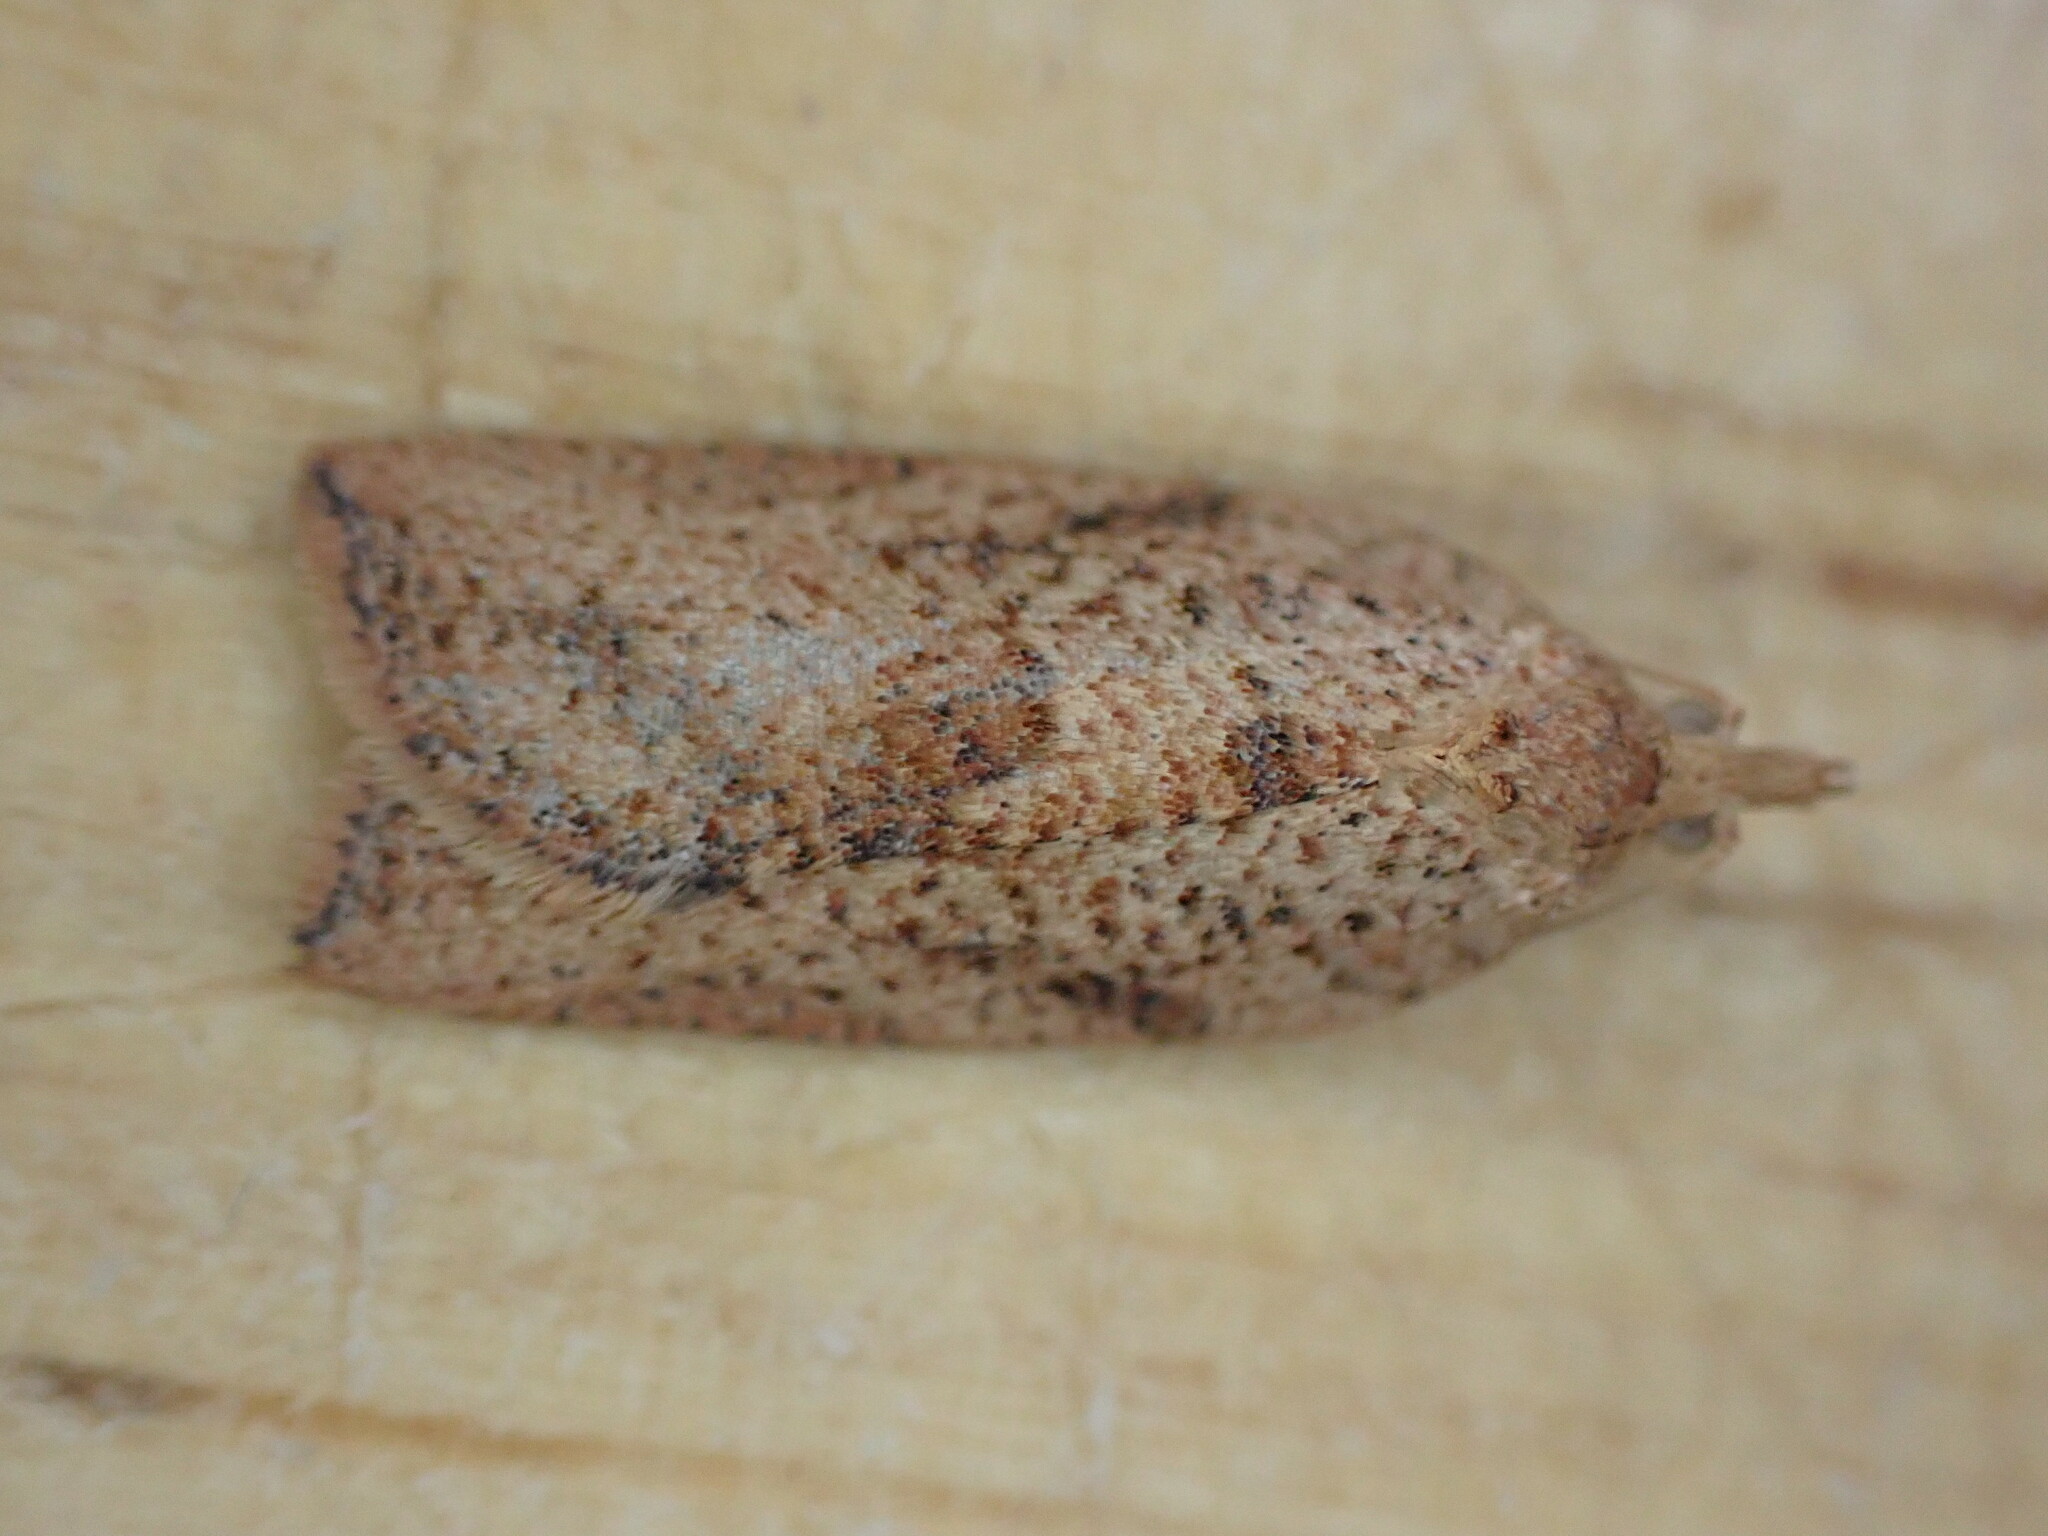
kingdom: Animalia
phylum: Arthropoda
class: Insecta
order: Lepidoptera
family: Tortricidae
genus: Epiphyas
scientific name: Epiphyas postvittana
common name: Light brown apple moth
